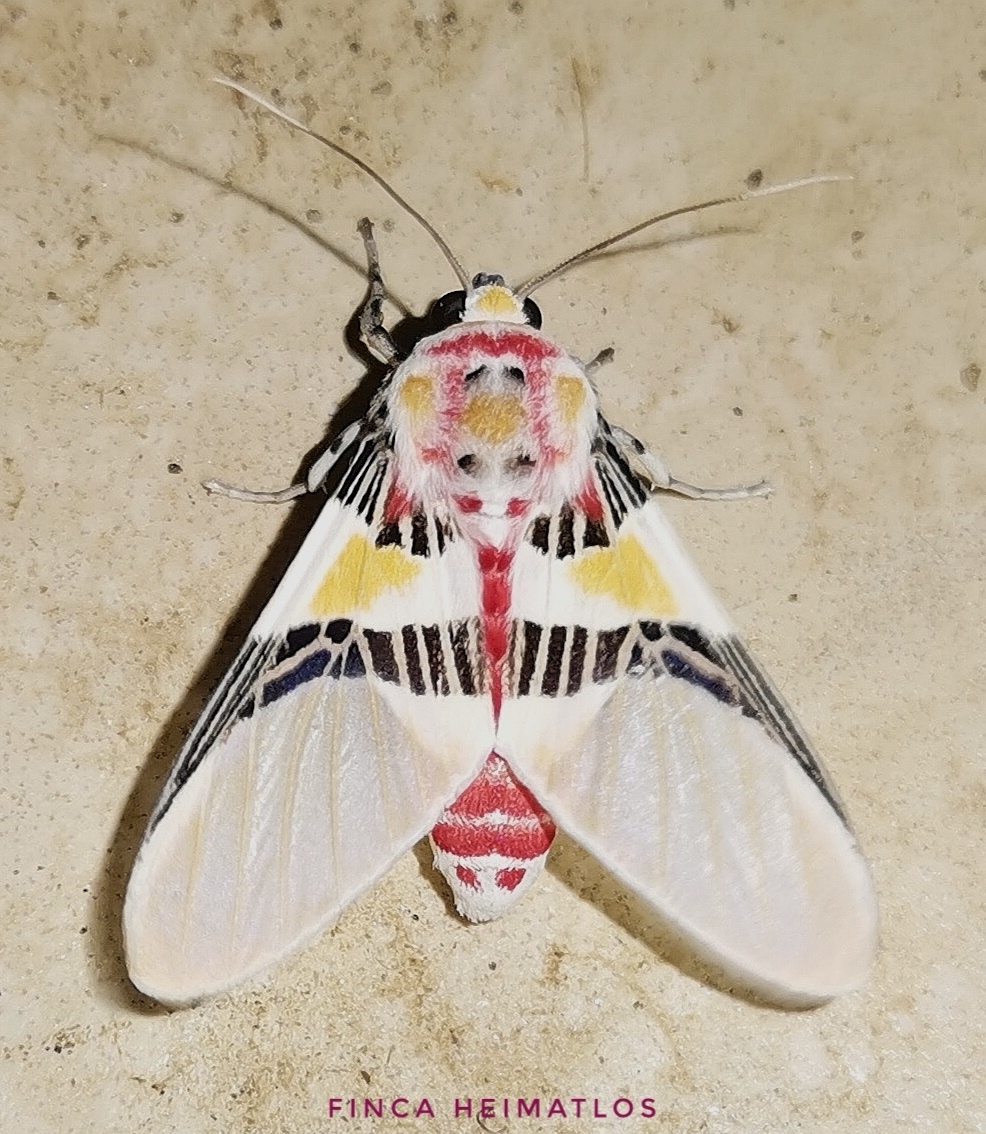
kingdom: Animalia
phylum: Arthropoda
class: Insecta
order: Lepidoptera
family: Erebidae
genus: Idalus
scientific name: Idalus pichesensis
